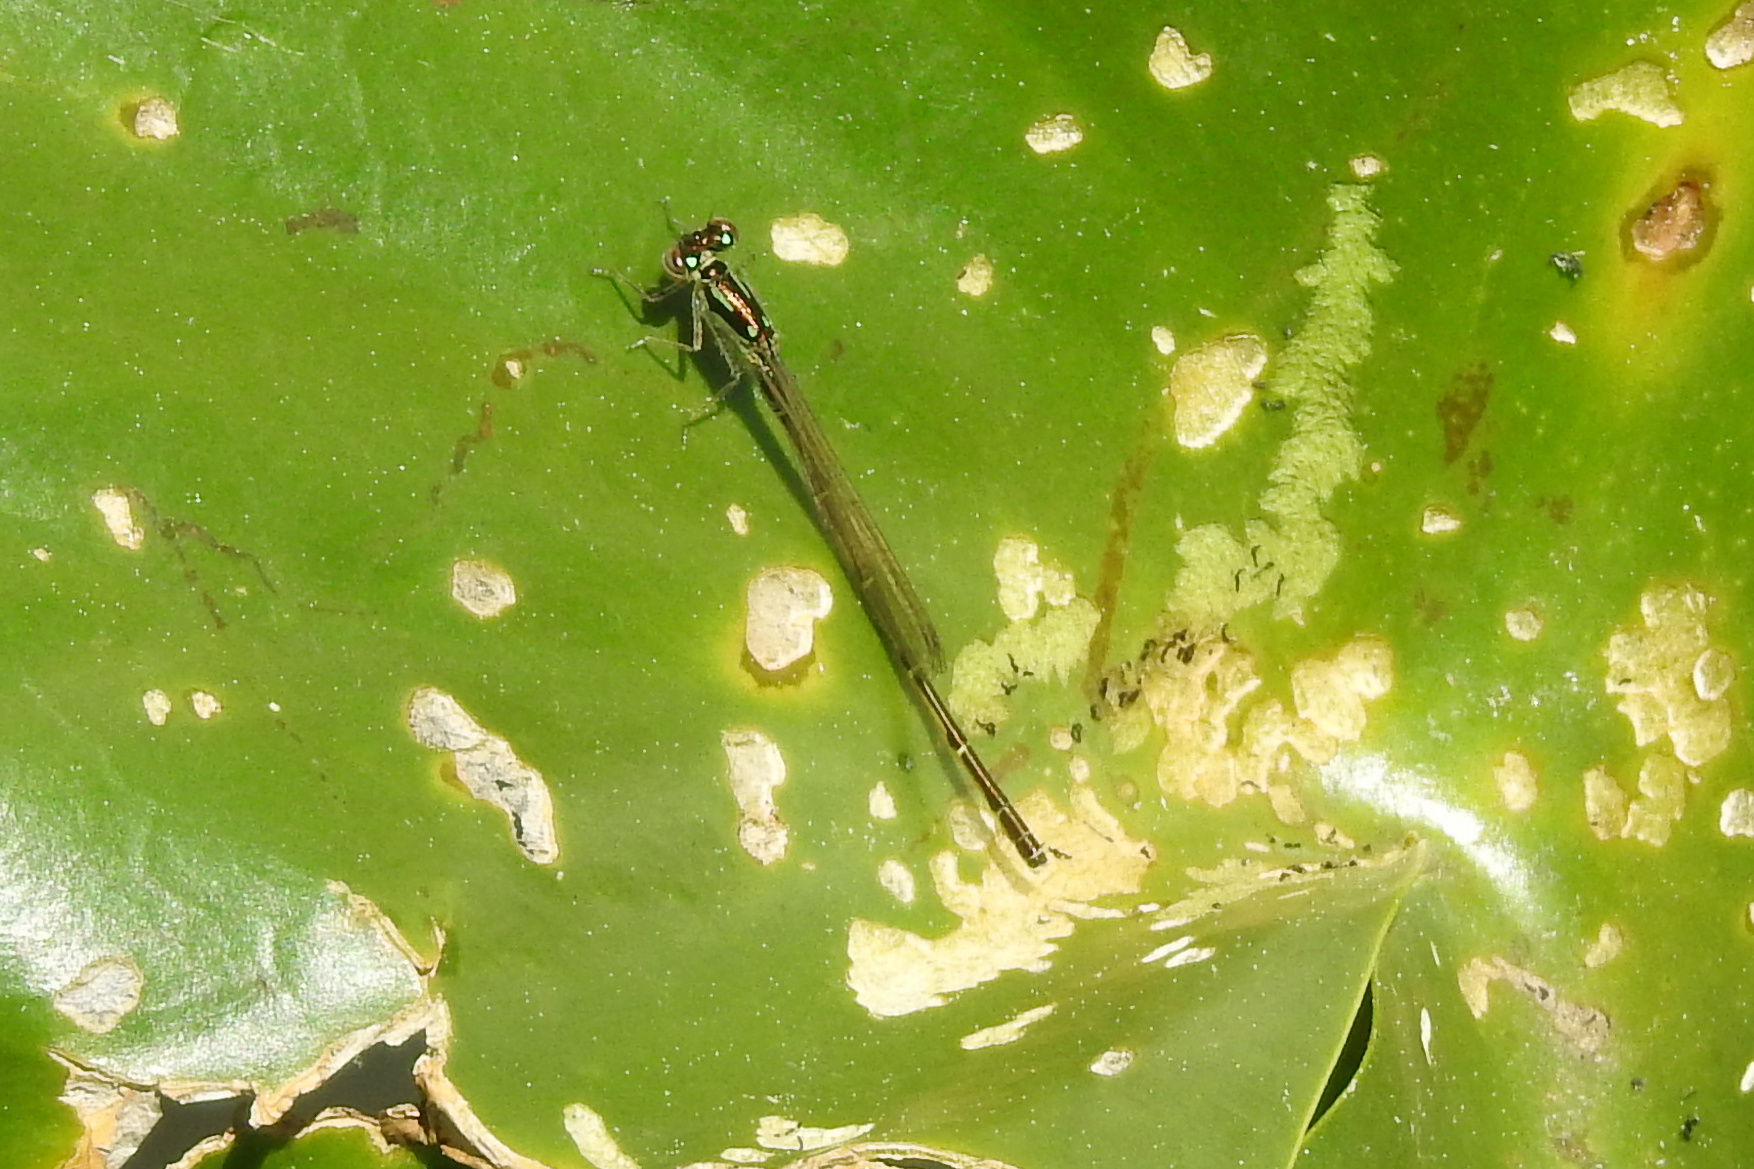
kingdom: Animalia
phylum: Arthropoda
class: Insecta
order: Odonata
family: Coenagrionidae
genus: Ischnura
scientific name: Ischnura posita
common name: Fragile forktail
